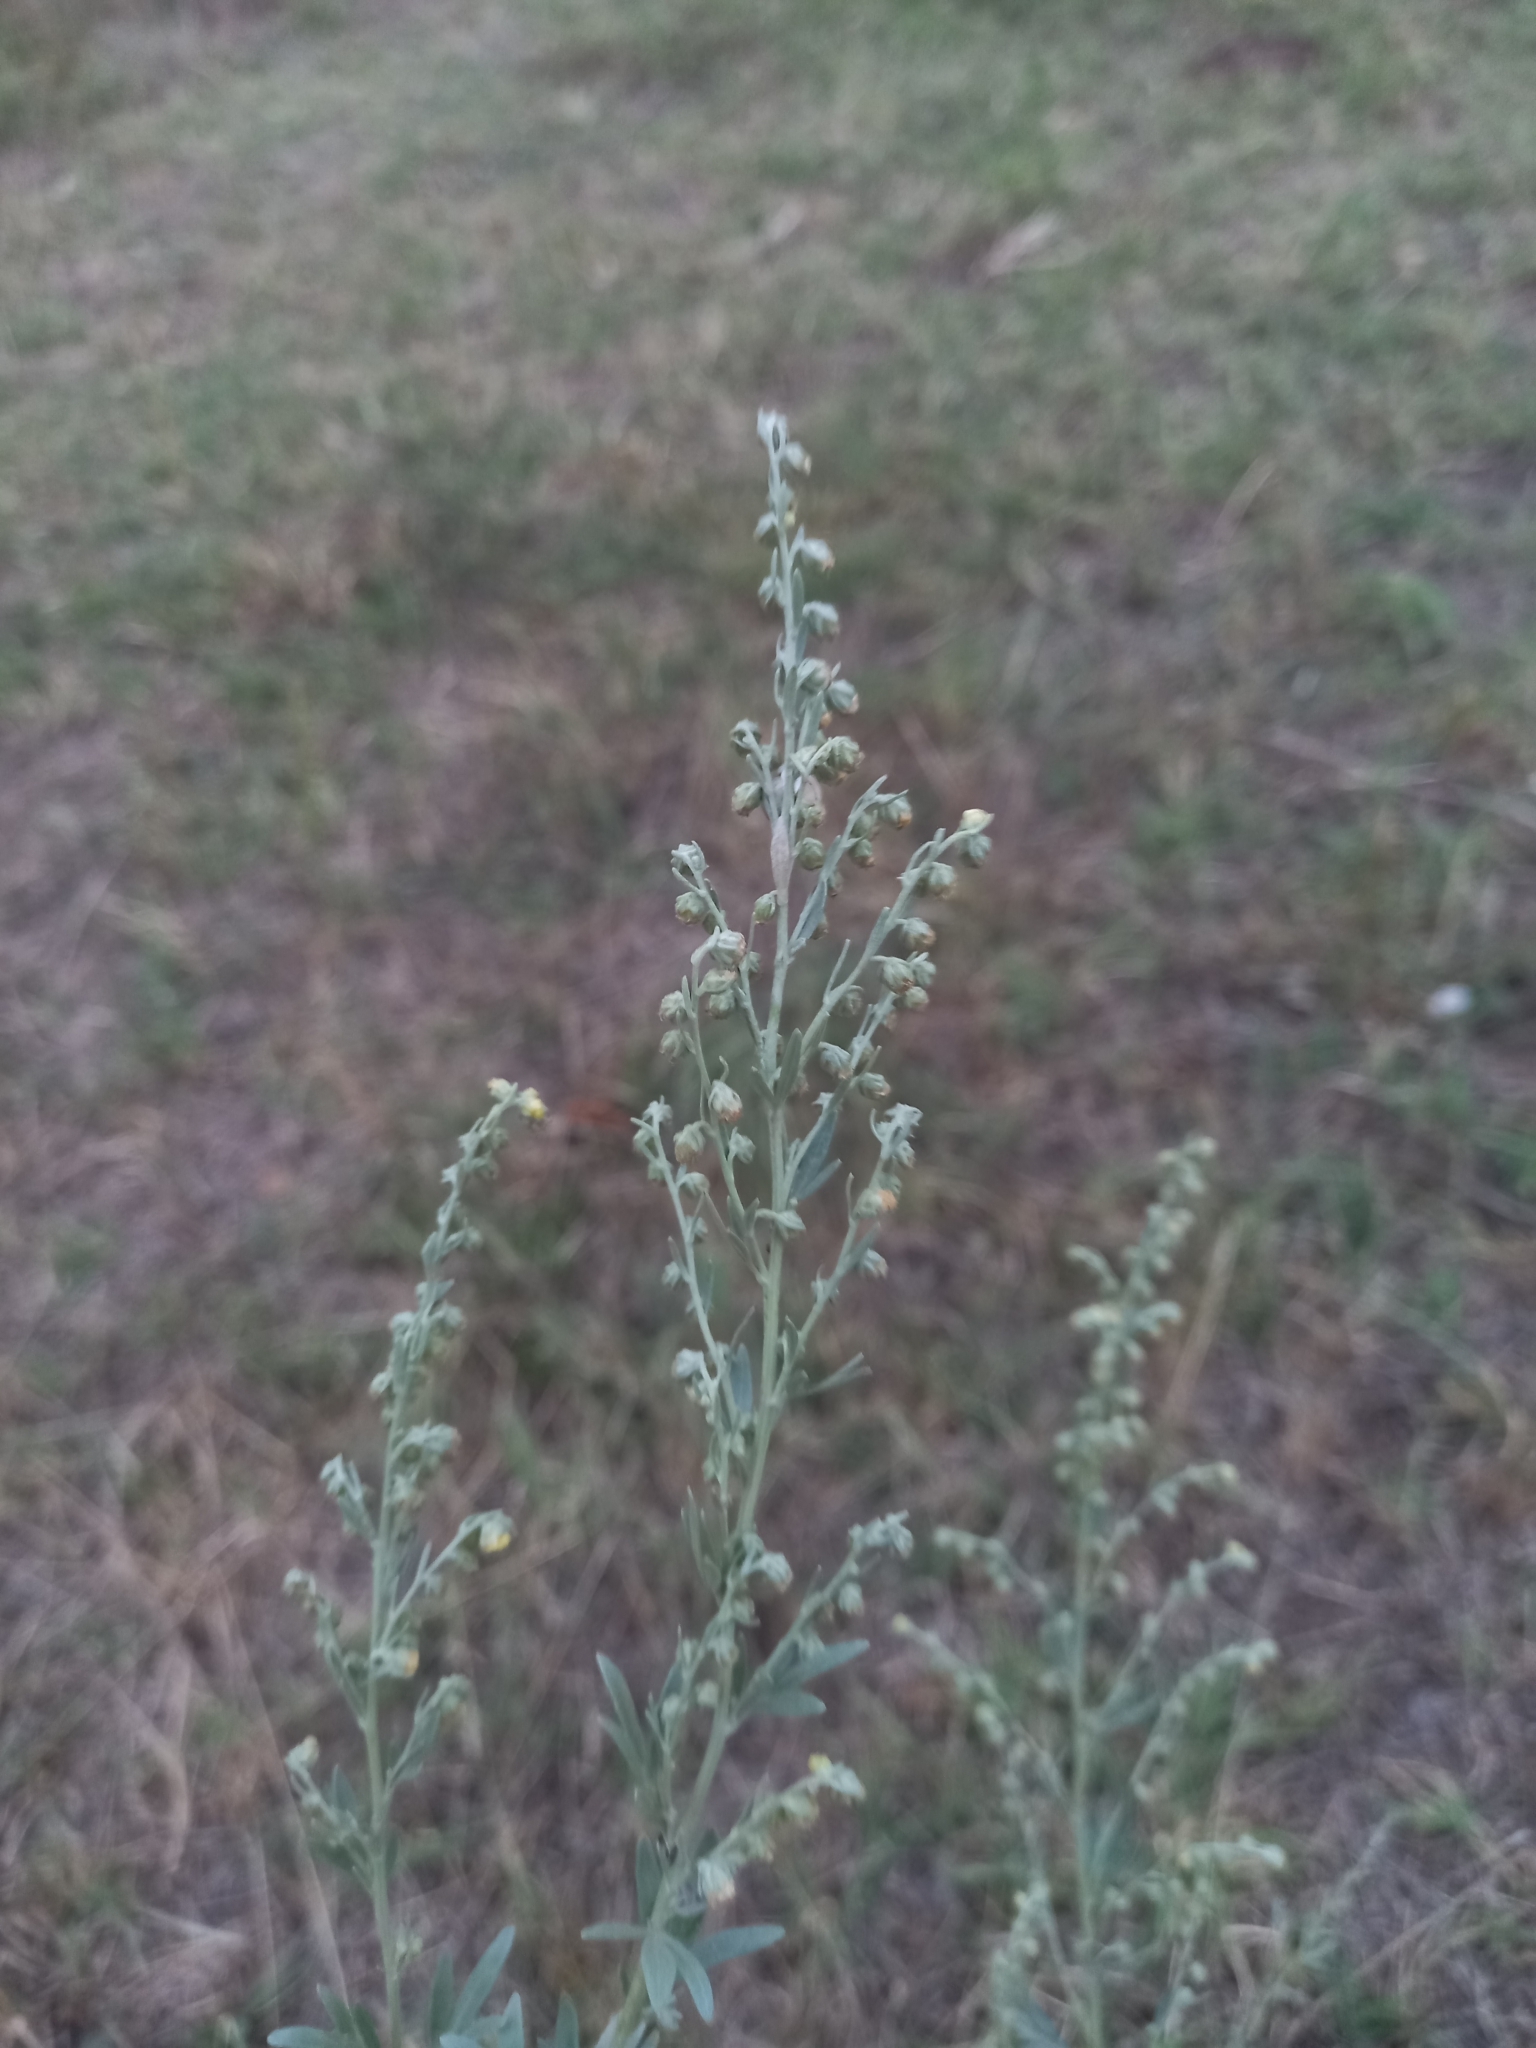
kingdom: Plantae
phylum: Tracheophyta
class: Magnoliopsida
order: Asterales
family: Asteraceae
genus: Artemisia
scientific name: Artemisia absinthium
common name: Wormwood
